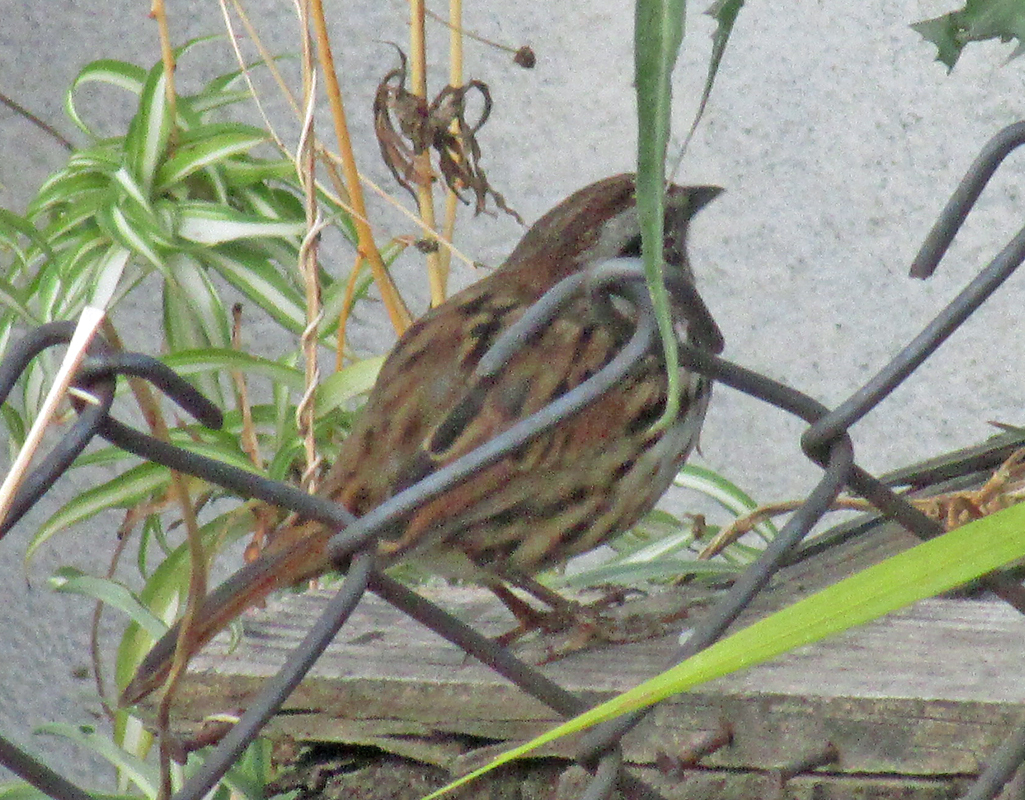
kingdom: Animalia
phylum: Chordata
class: Aves
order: Passeriformes
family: Passerellidae
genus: Melospiza
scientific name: Melospiza melodia
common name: Song sparrow
